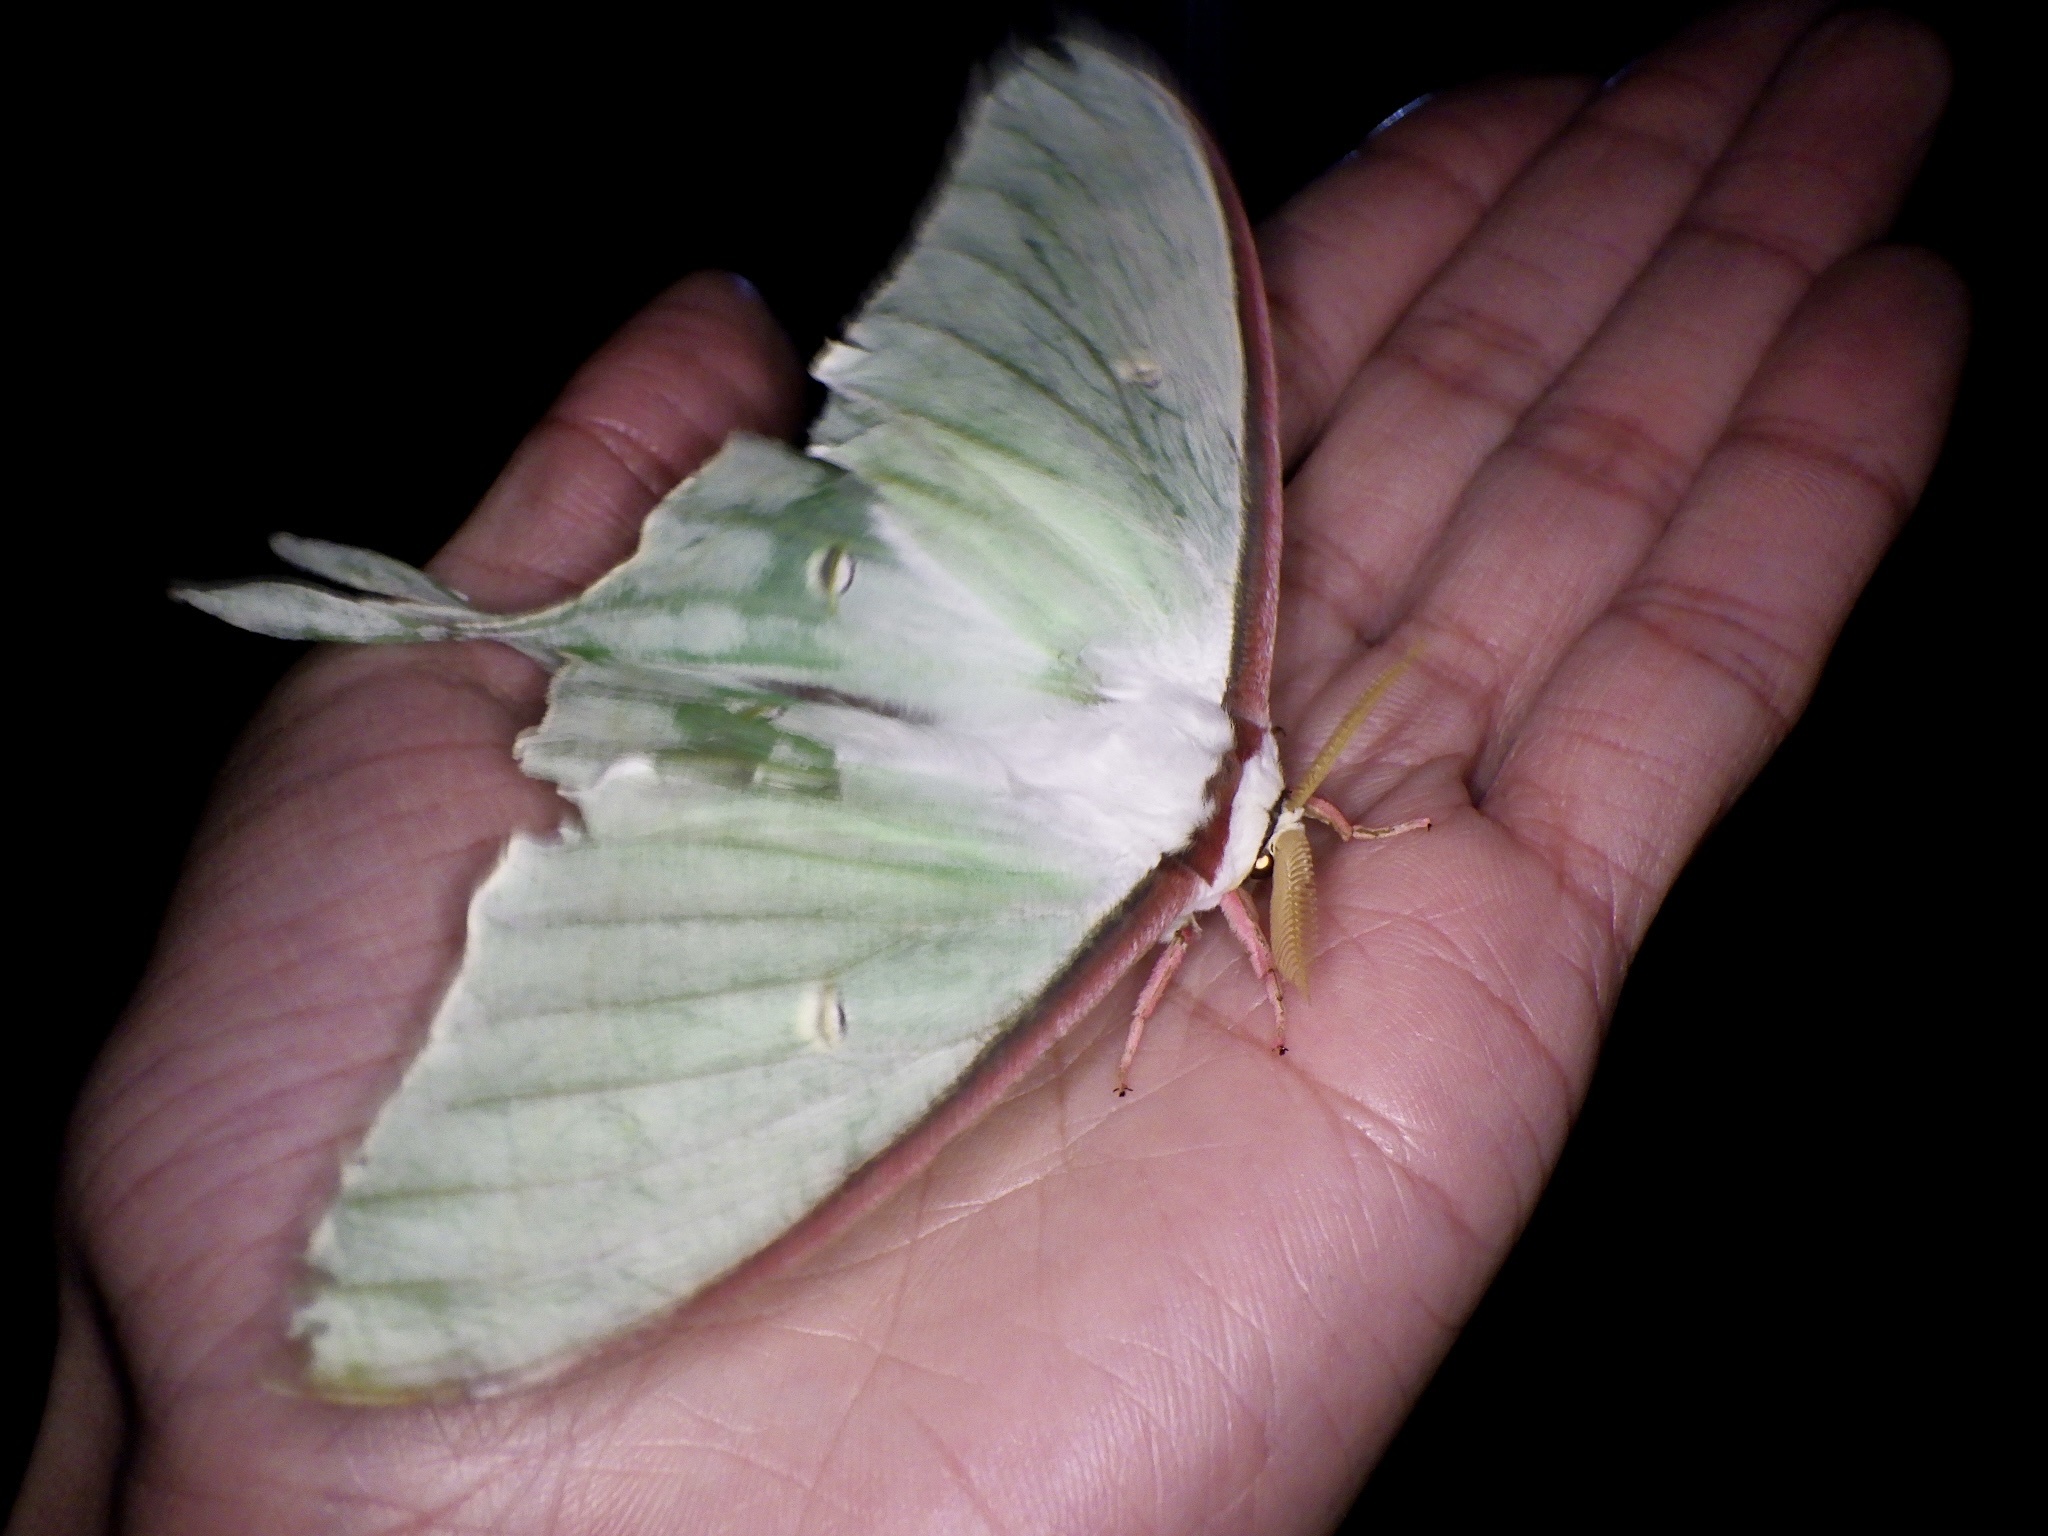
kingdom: Animalia
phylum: Arthropoda
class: Insecta
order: Lepidoptera
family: Saturniidae
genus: Actias
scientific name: Actias aliena
